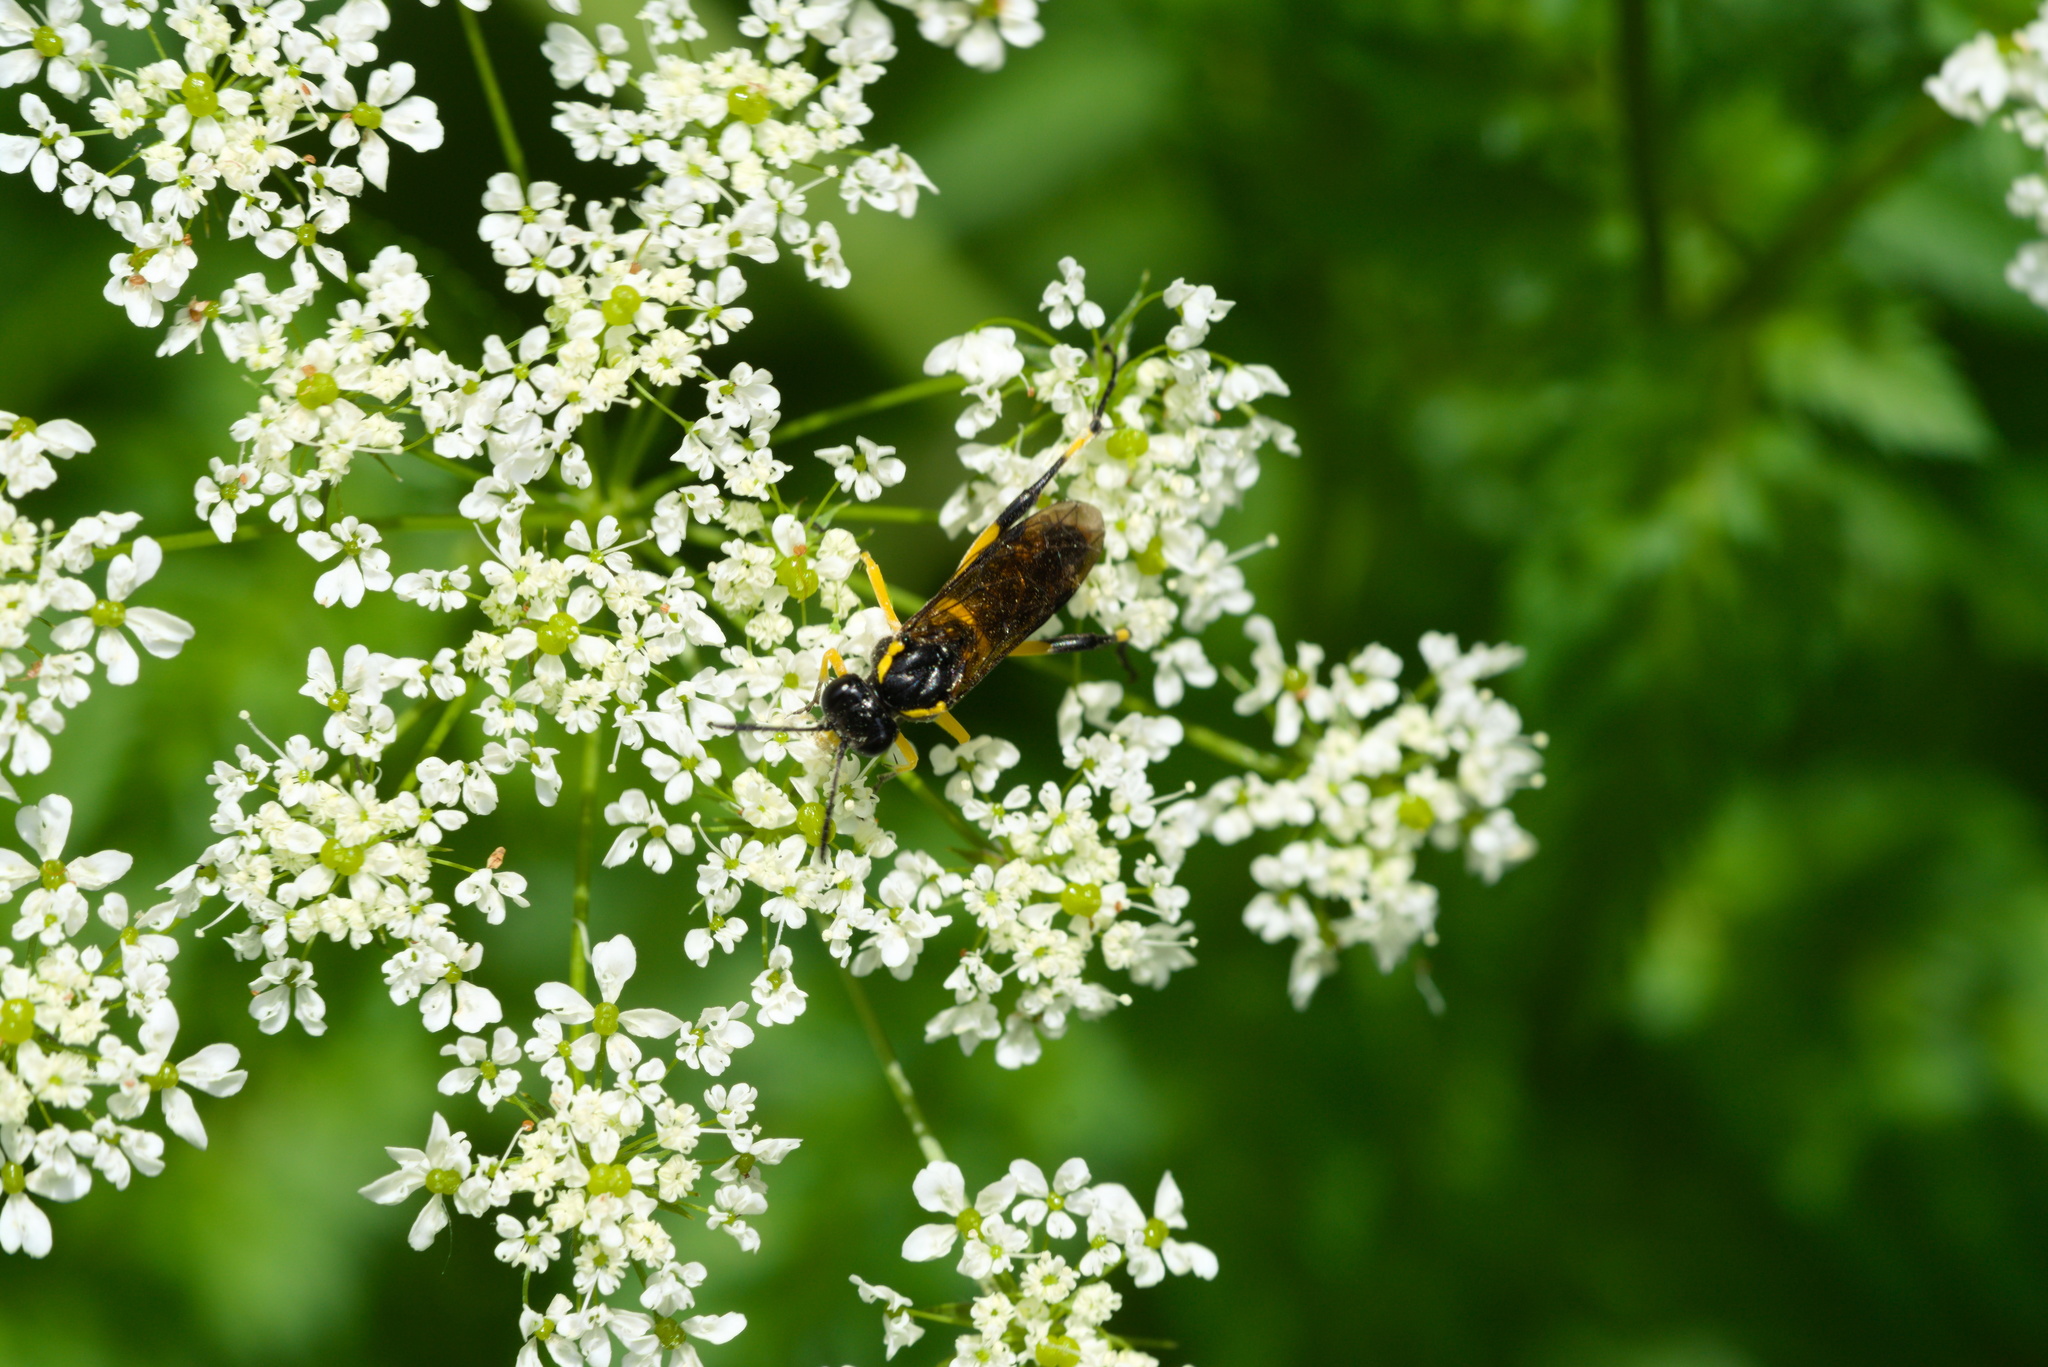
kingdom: Animalia
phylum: Arthropoda
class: Insecta
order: Hymenoptera
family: Tenthredinidae
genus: Macrophya
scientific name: Macrophya montana
